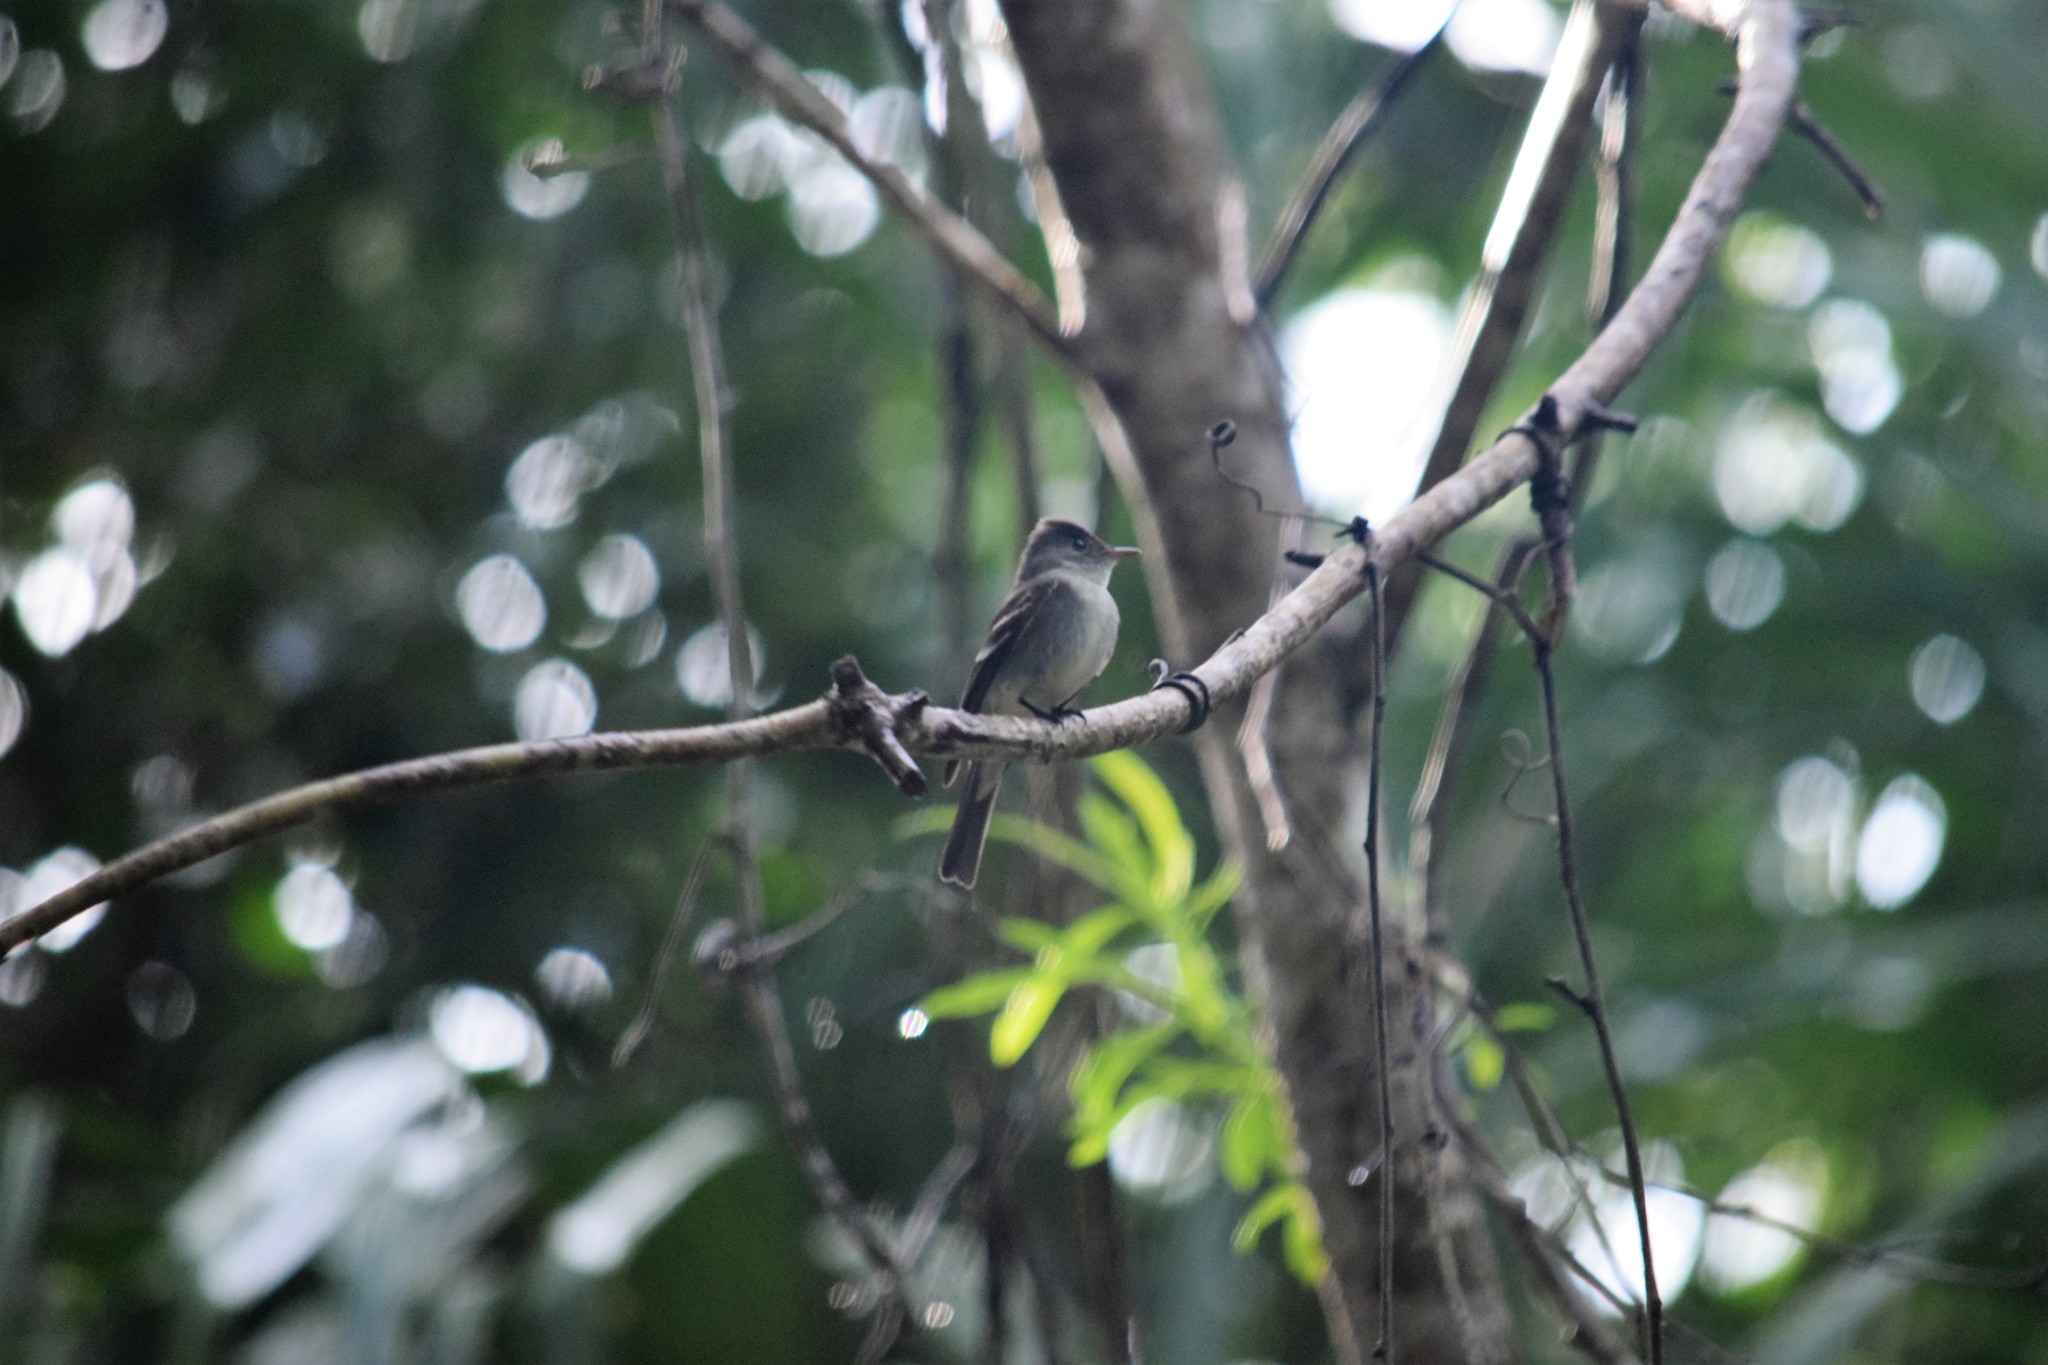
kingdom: Animalia
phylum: Chordata
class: Aves
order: Passeriformes
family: Tyrannidae
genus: Contopus
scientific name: Contopus virens
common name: Eastern wood-pewee
